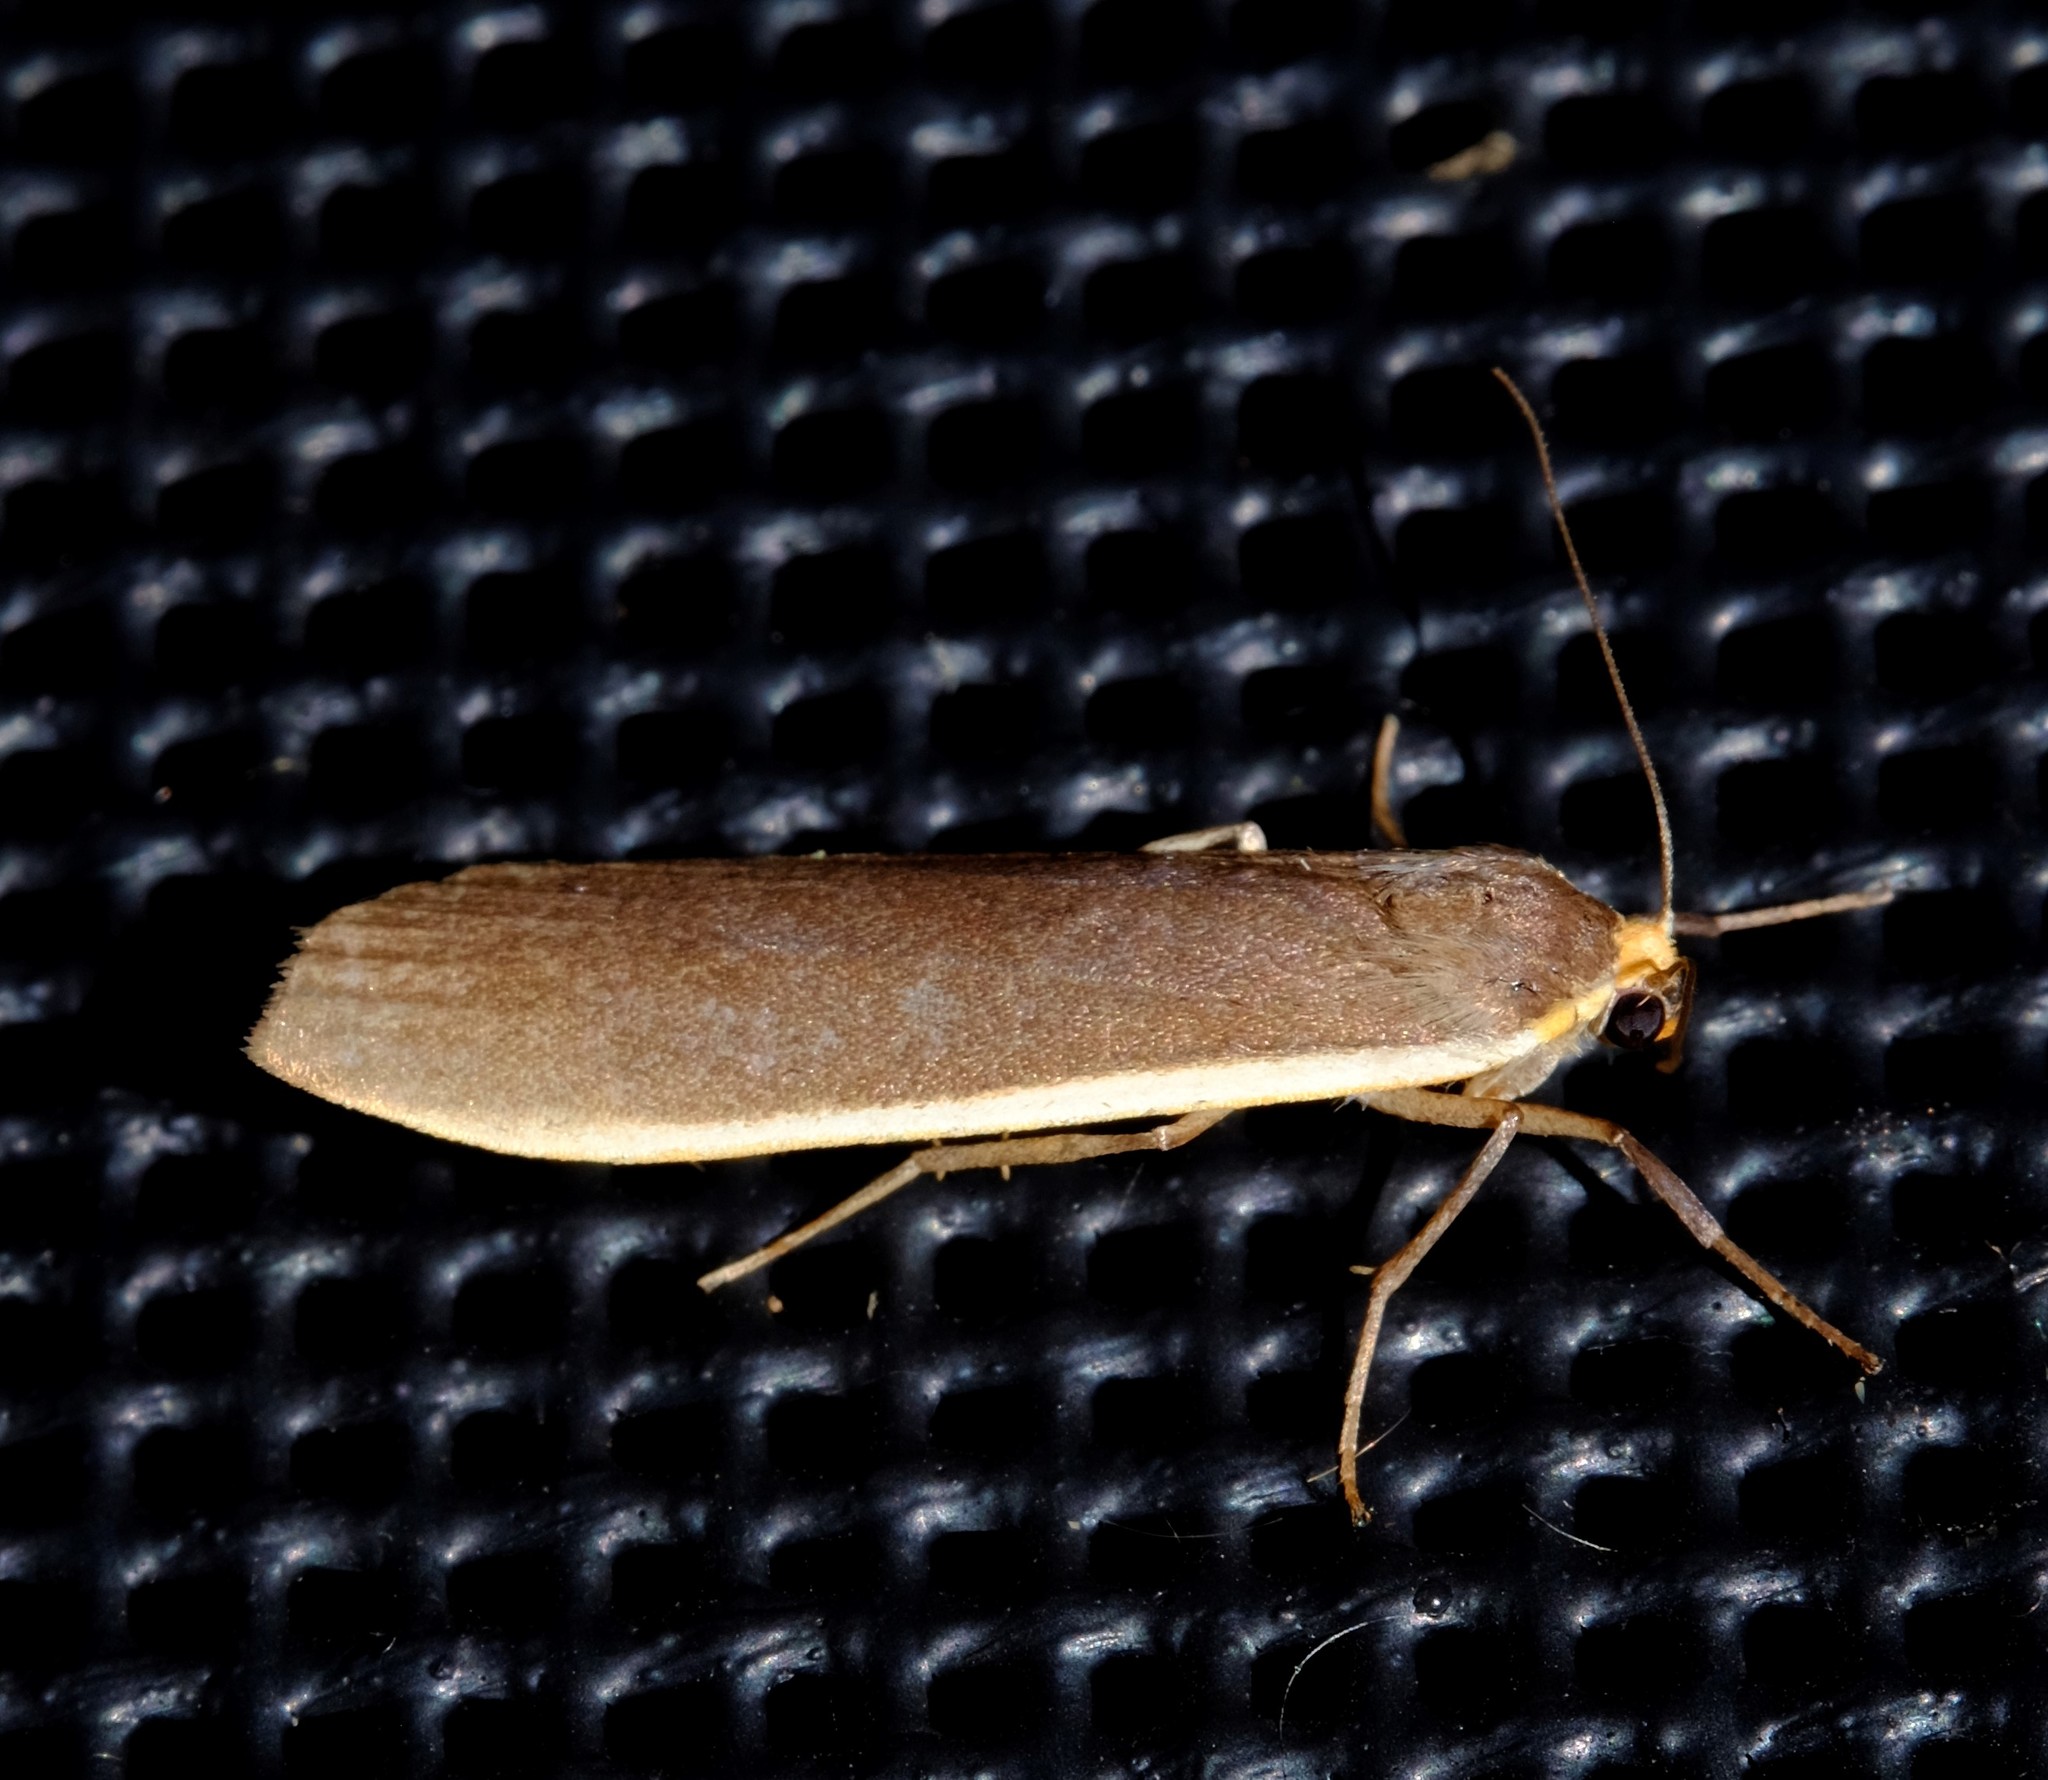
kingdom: Animalia
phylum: Arthropoda
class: Insecta
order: Lepidoptera
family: Erebidae
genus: Palaeosia
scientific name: Palaeosia
